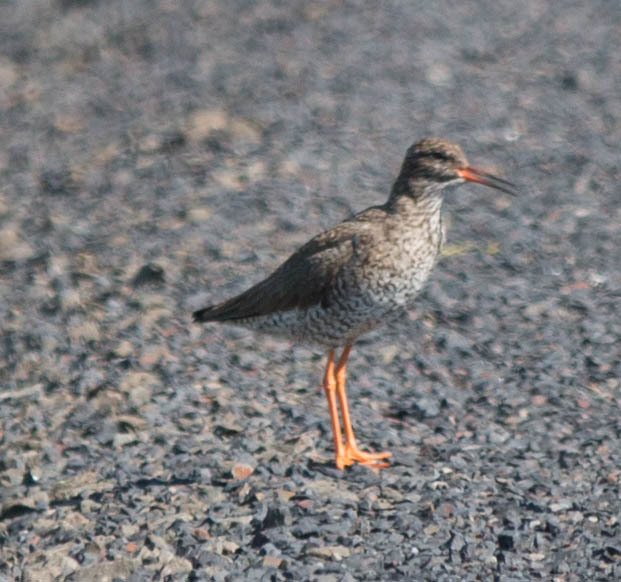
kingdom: Animalia
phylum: Chordata
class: Aves
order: Charadriiformes
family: Scolopacidae
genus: Tringa
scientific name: Tringa totanus
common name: Common redshank
